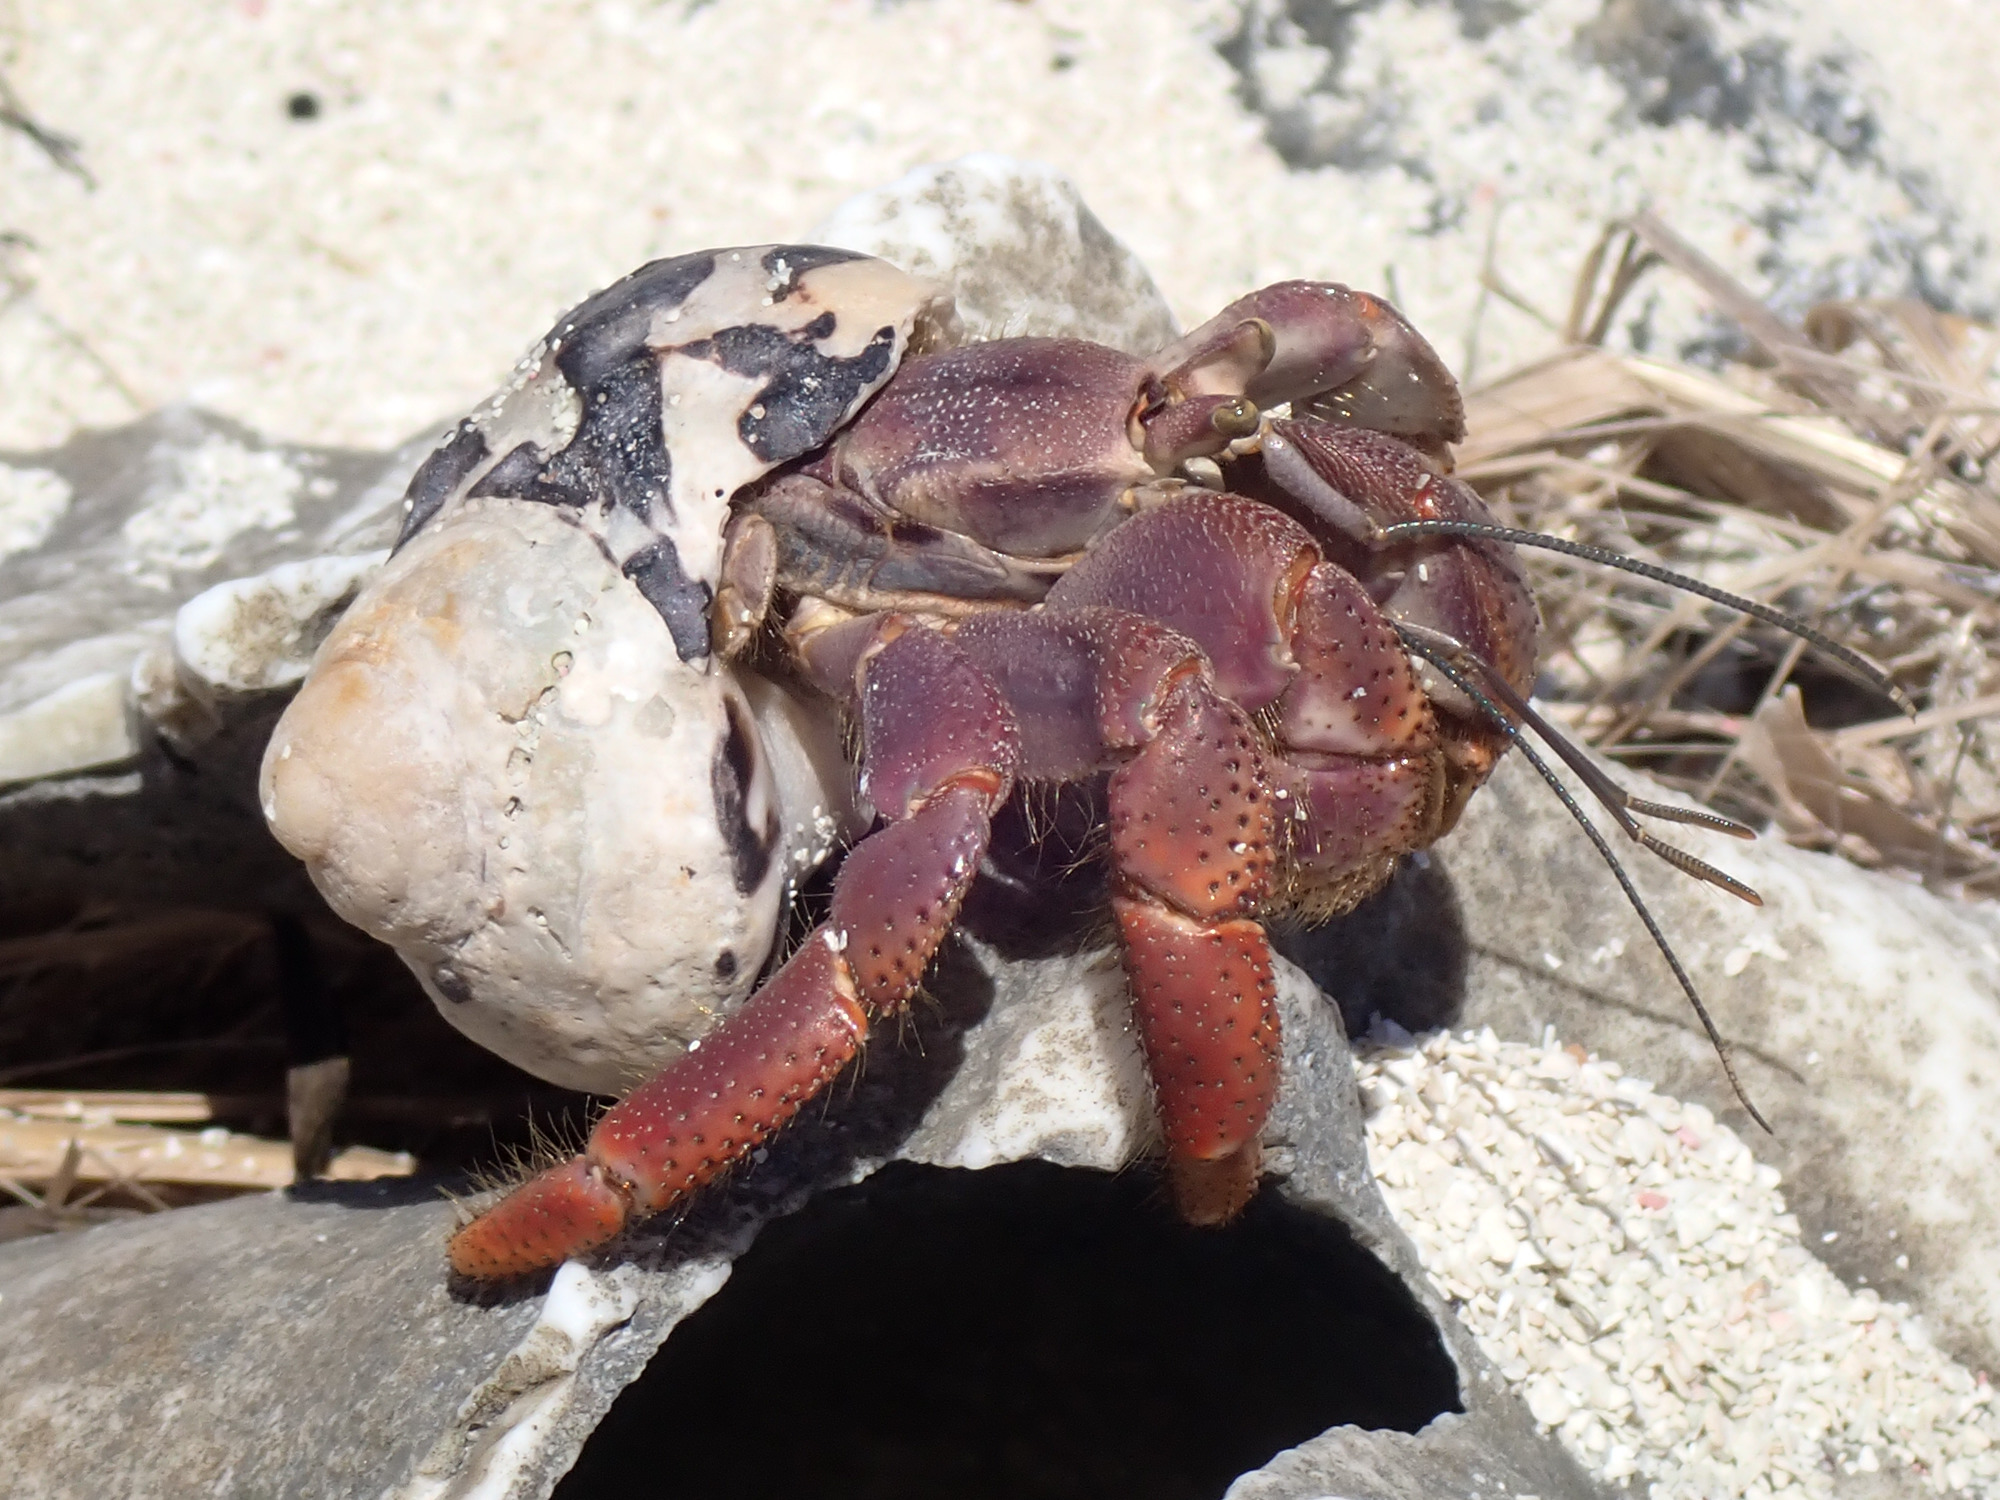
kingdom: Animalia
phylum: Arthropoda
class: Malacostraca
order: Decapoda
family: Coenobitidae
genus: Coenobita
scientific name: Coenobita clypeatus
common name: Caribbean hermit crab
